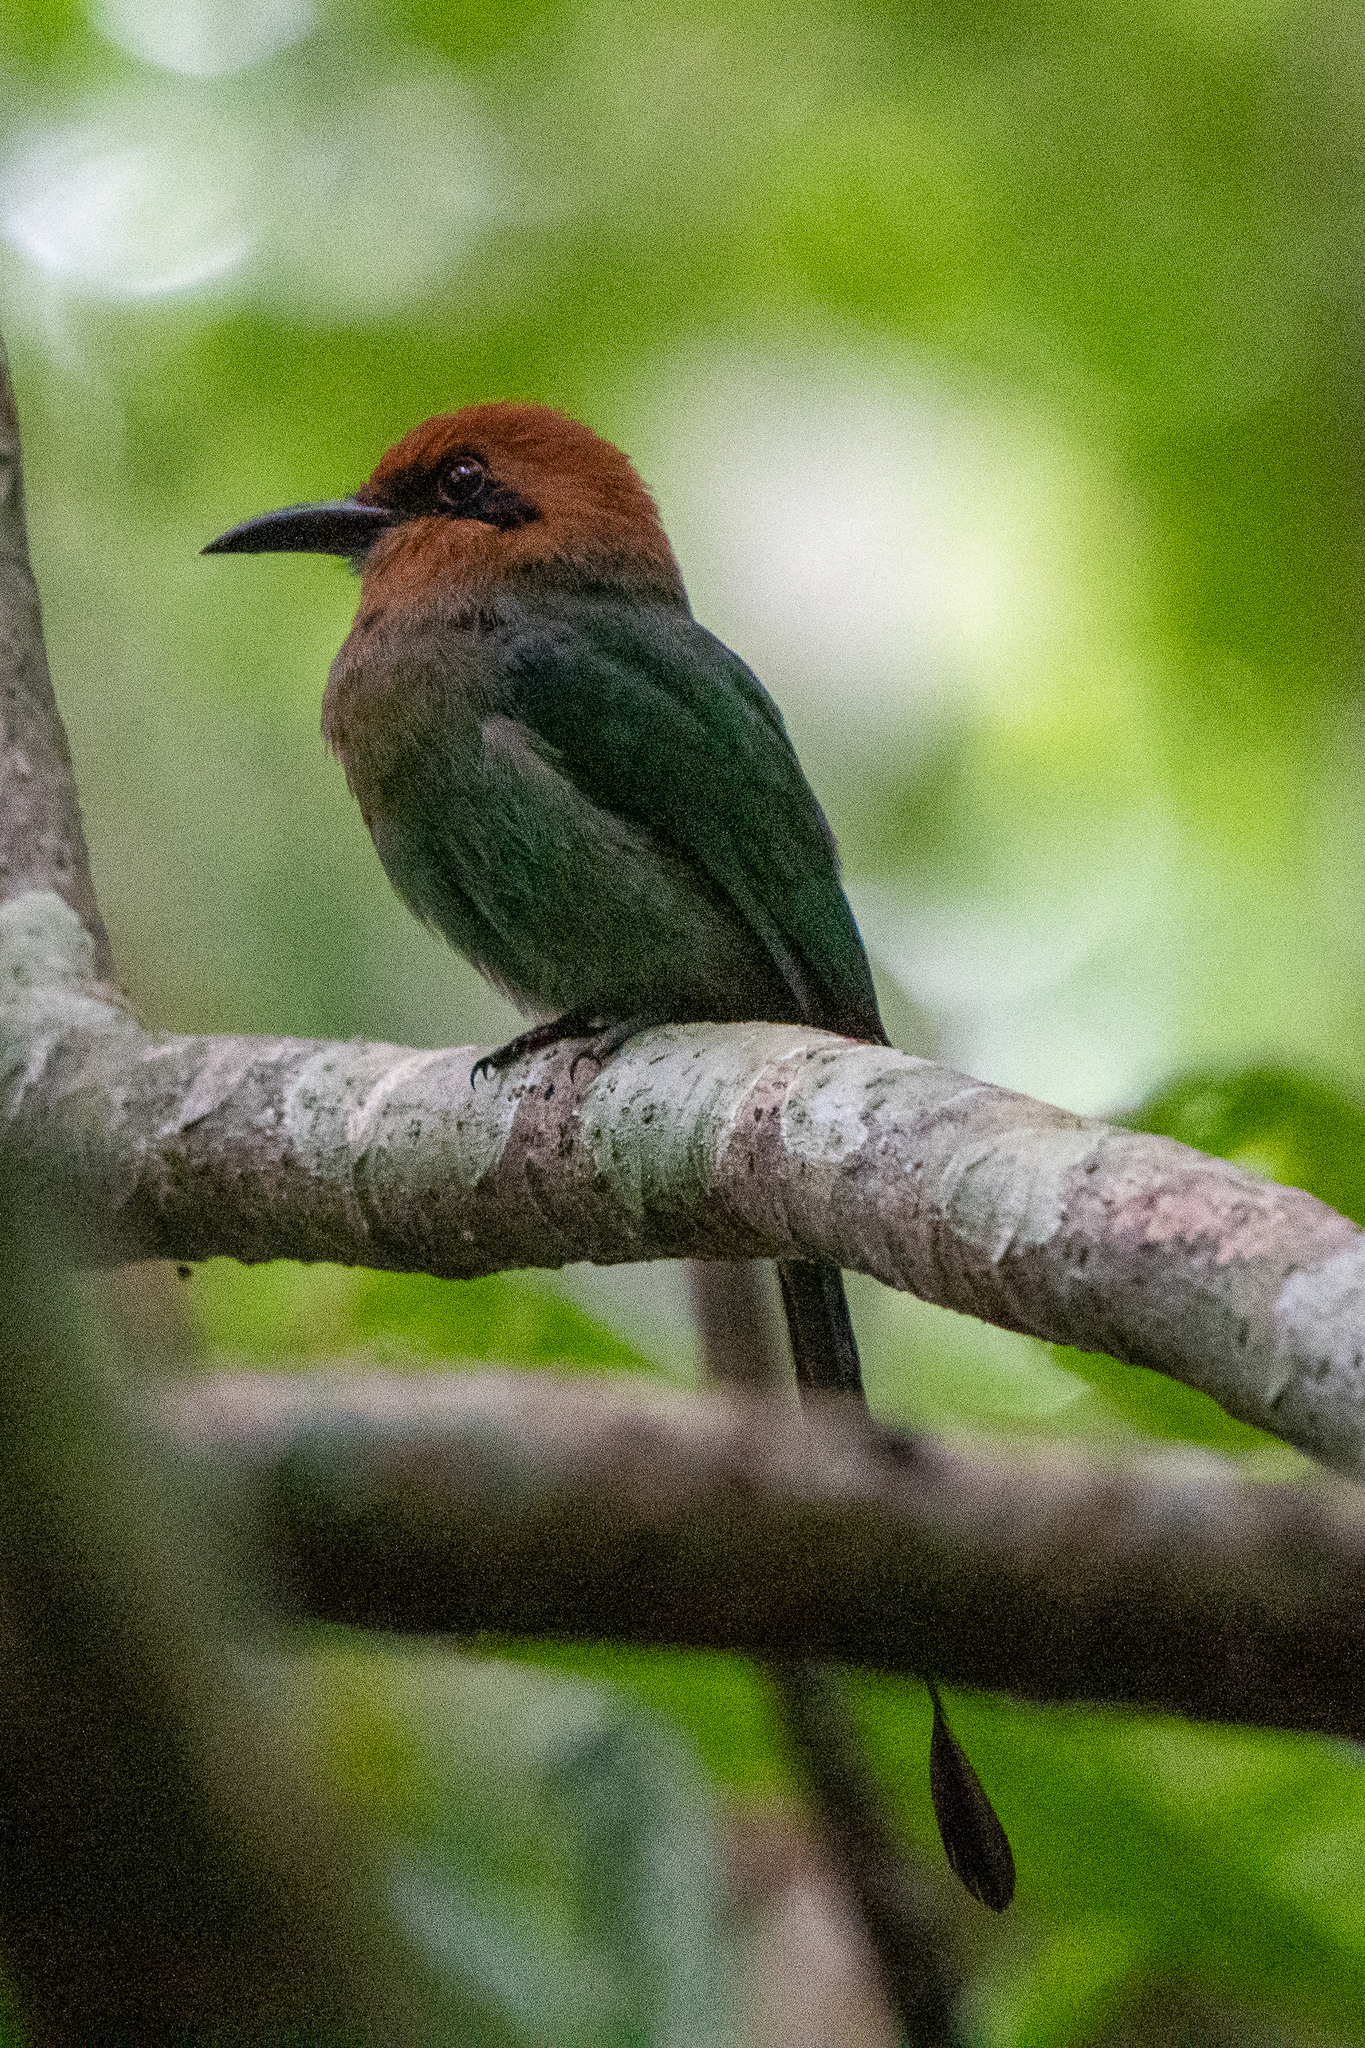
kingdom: Animalia
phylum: Chordata
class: Aves
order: Coraciiformes
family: Momotidae
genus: Electron
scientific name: Electron platyrhynchum
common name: Broad-billed motmot
